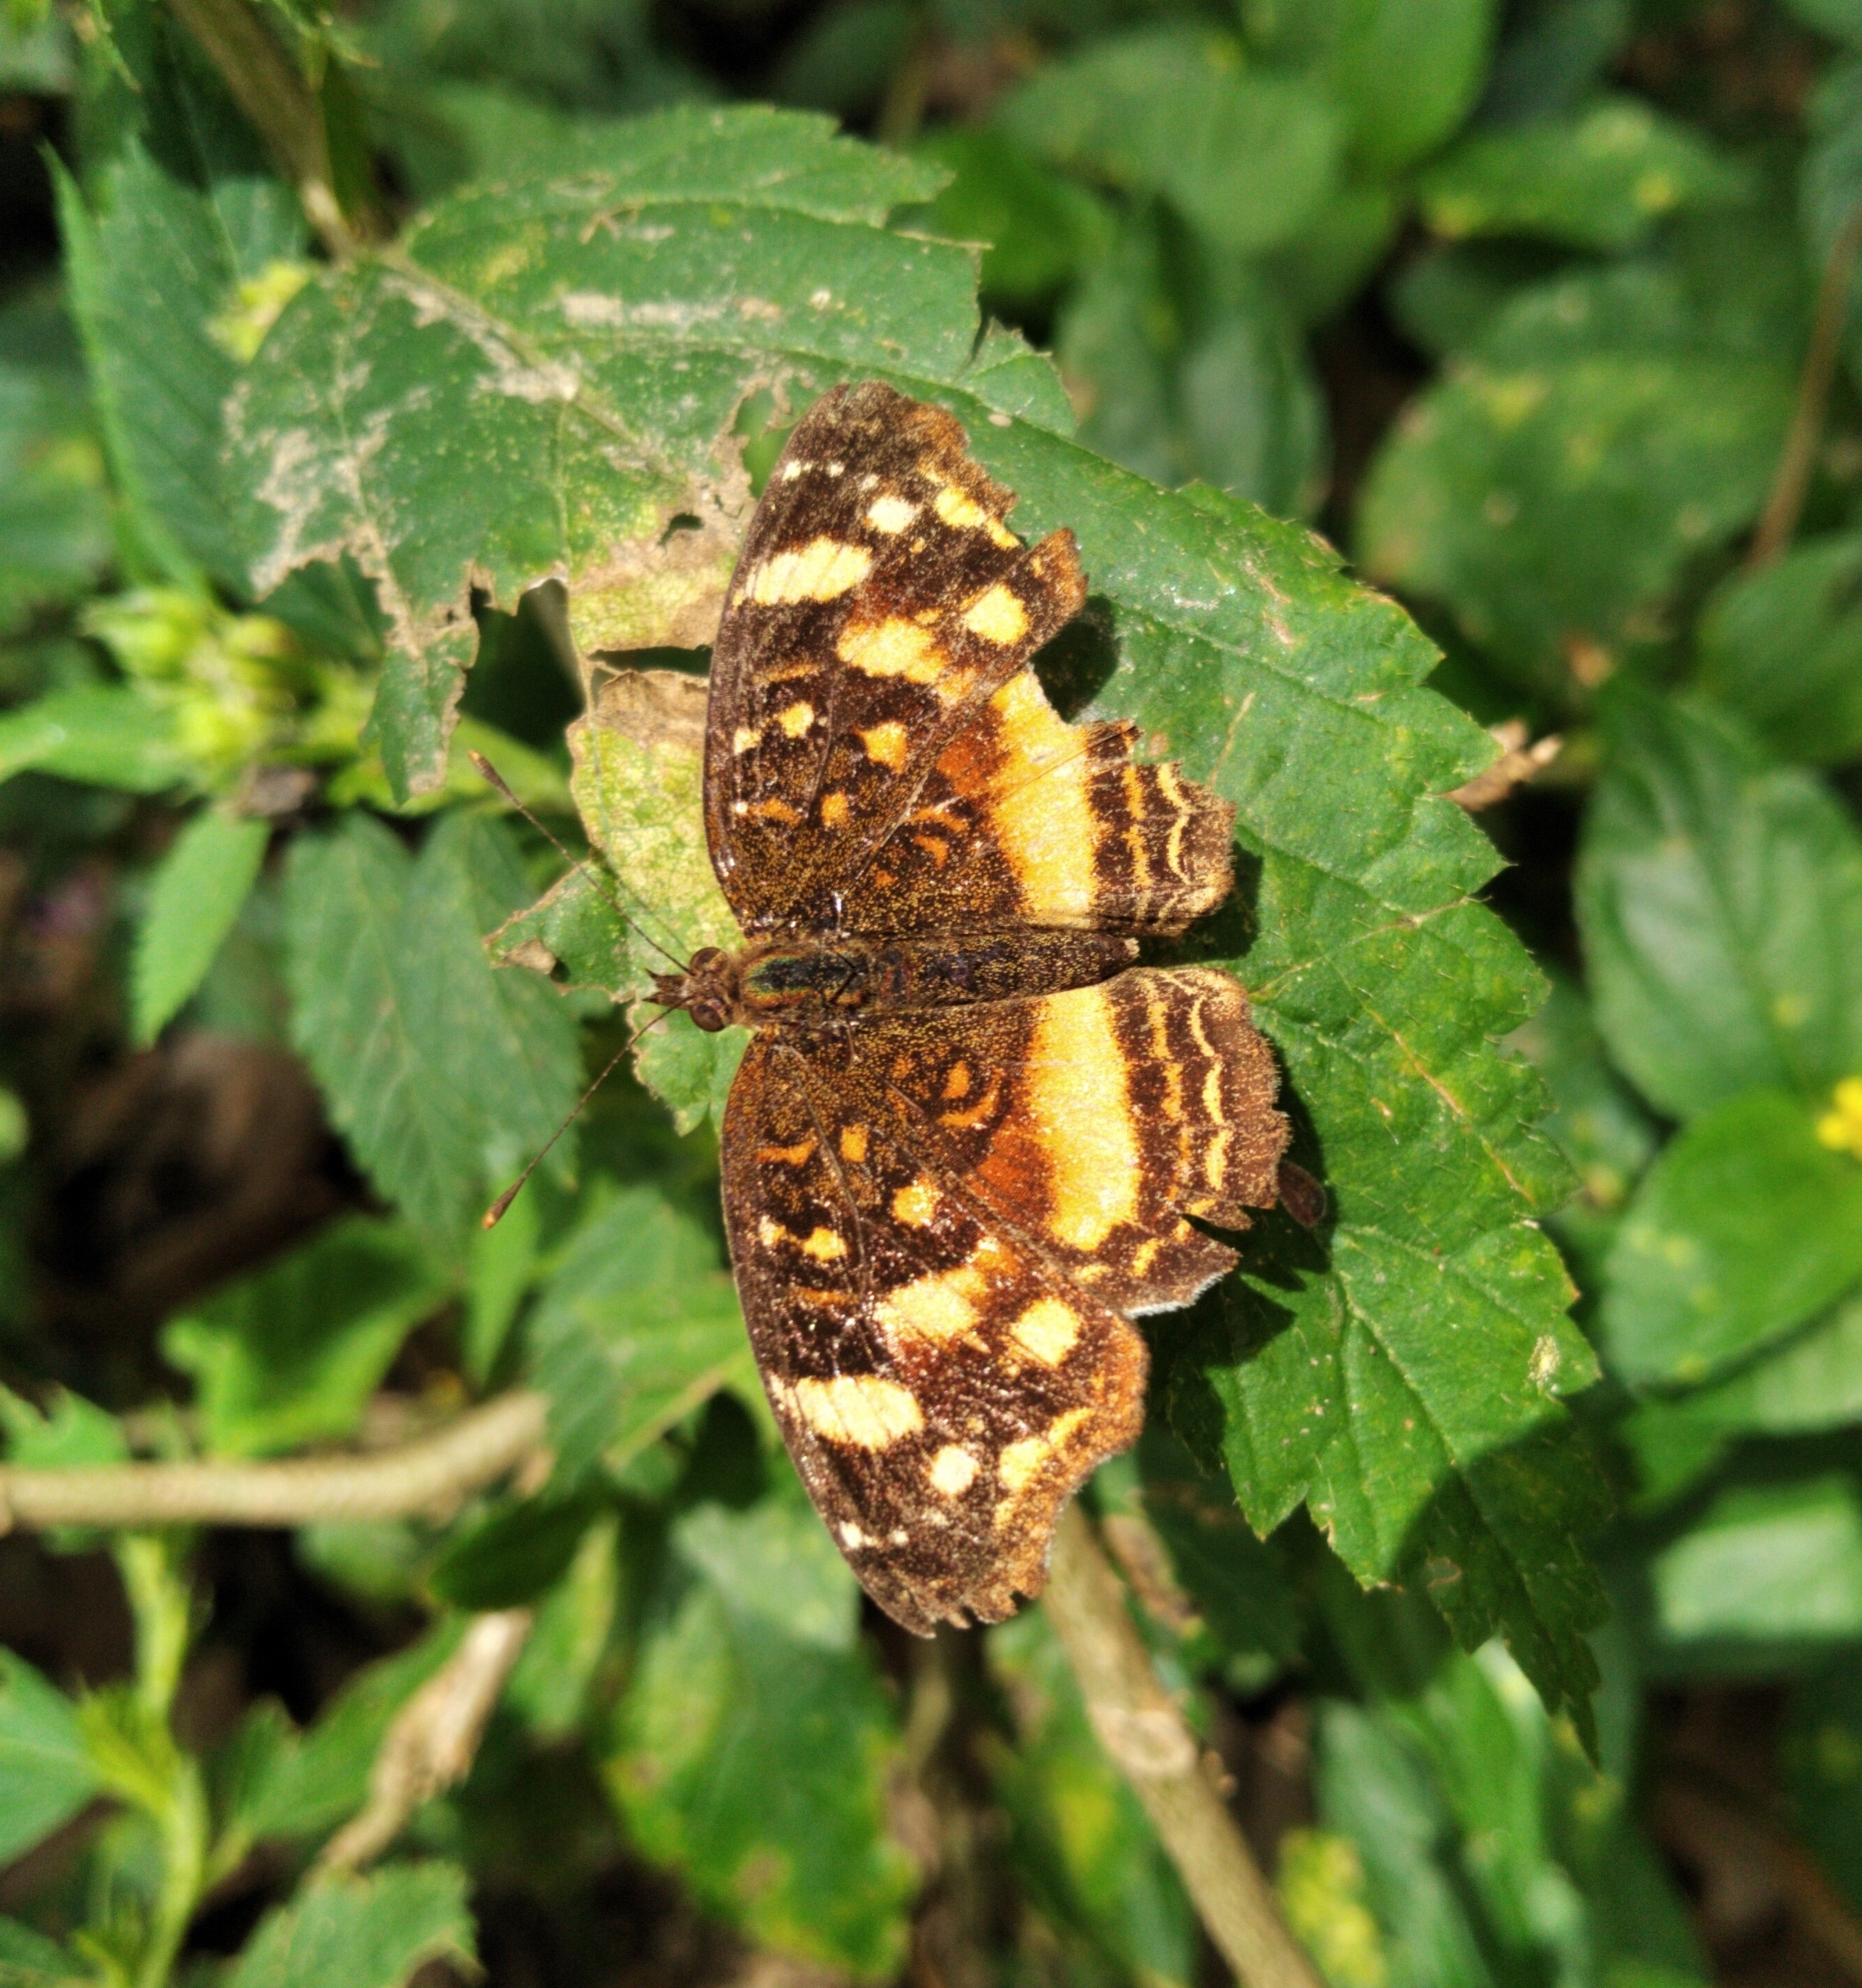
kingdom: Animalia
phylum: Arthropoda
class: Insecta
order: Lepidoptera
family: Nymphalidae
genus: Anthanassa
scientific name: Anthanassa drusilla
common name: Orange-patched crescent
